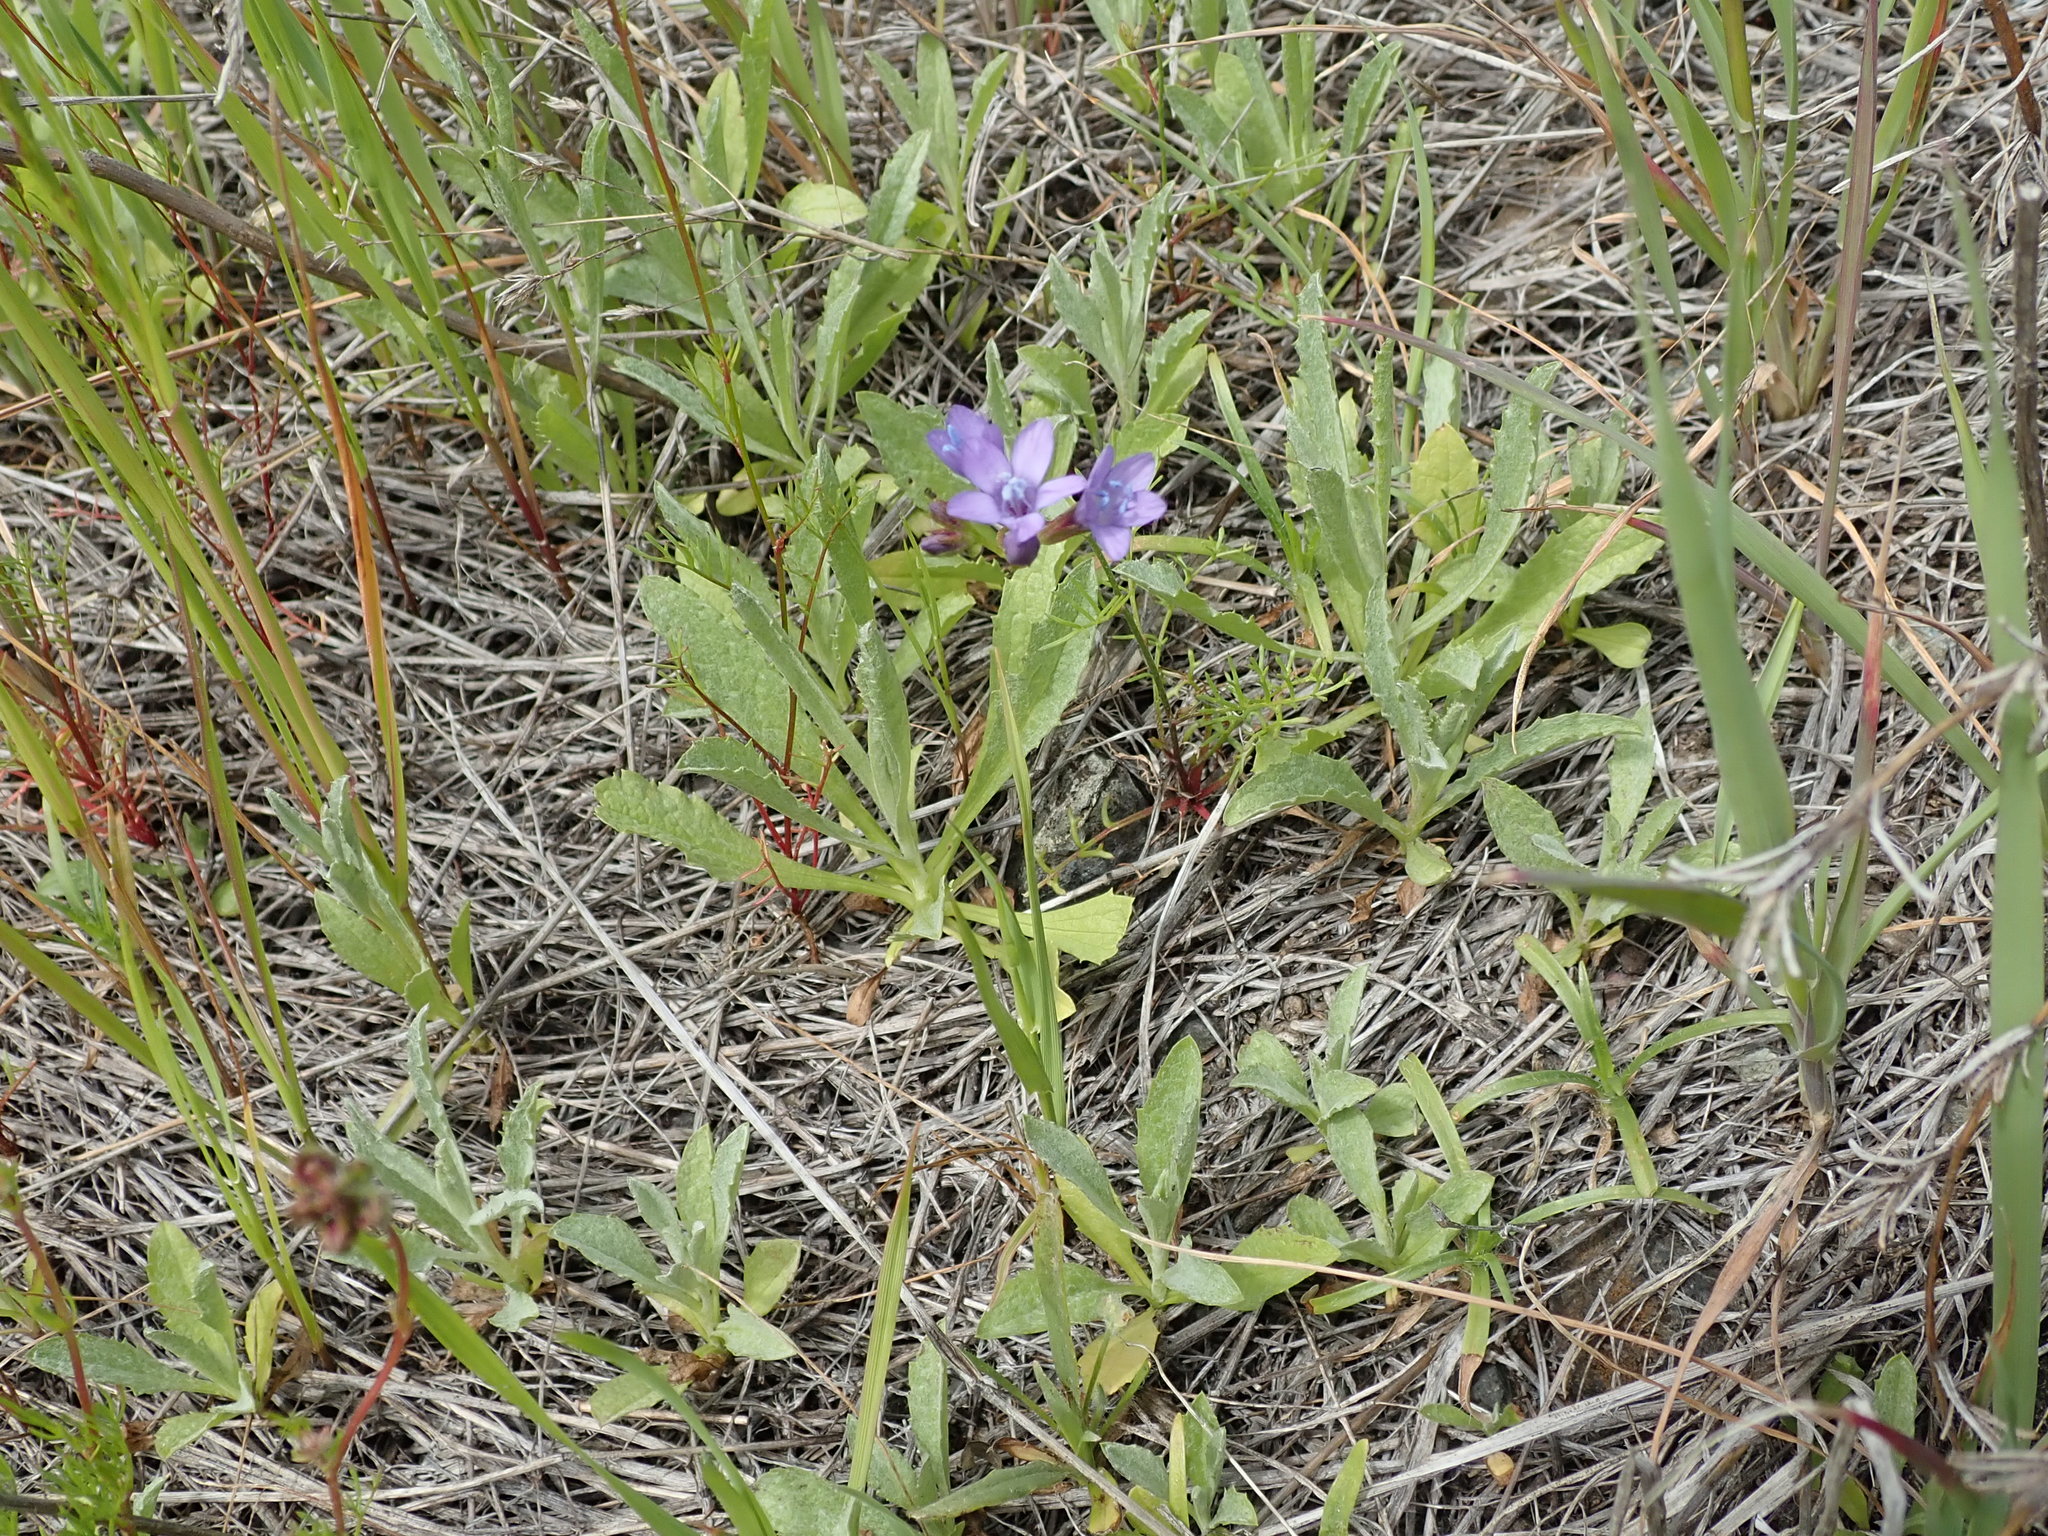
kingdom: Plantae
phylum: Tracheophyta
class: Magnoliopsida
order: Ericales
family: Polemoniaceae
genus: Gilia
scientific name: Gilia achilleifolia
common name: California gily-flower
